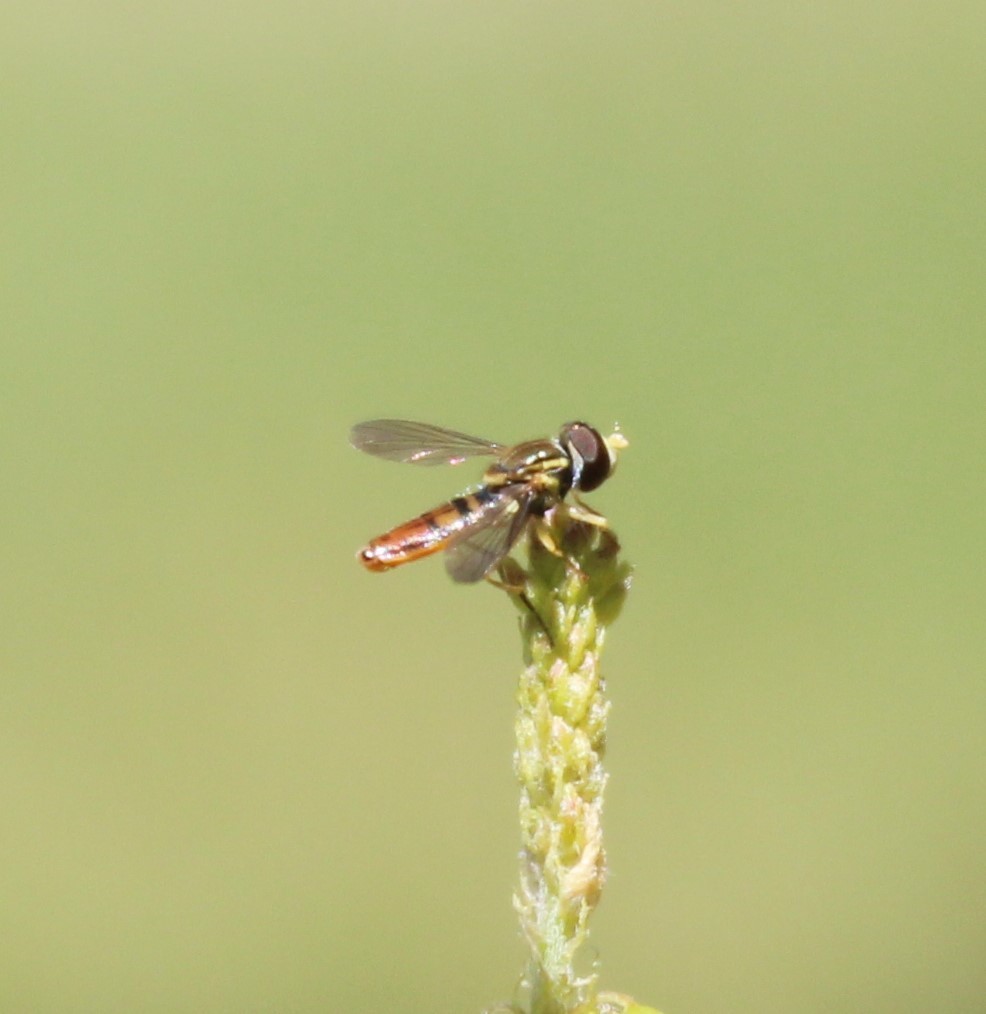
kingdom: Animalia
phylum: Arthropoda
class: Insecta
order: Diptera
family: Syrphidae
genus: Toxomerus
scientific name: Toxomerus marginatus
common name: Syrphid fly
